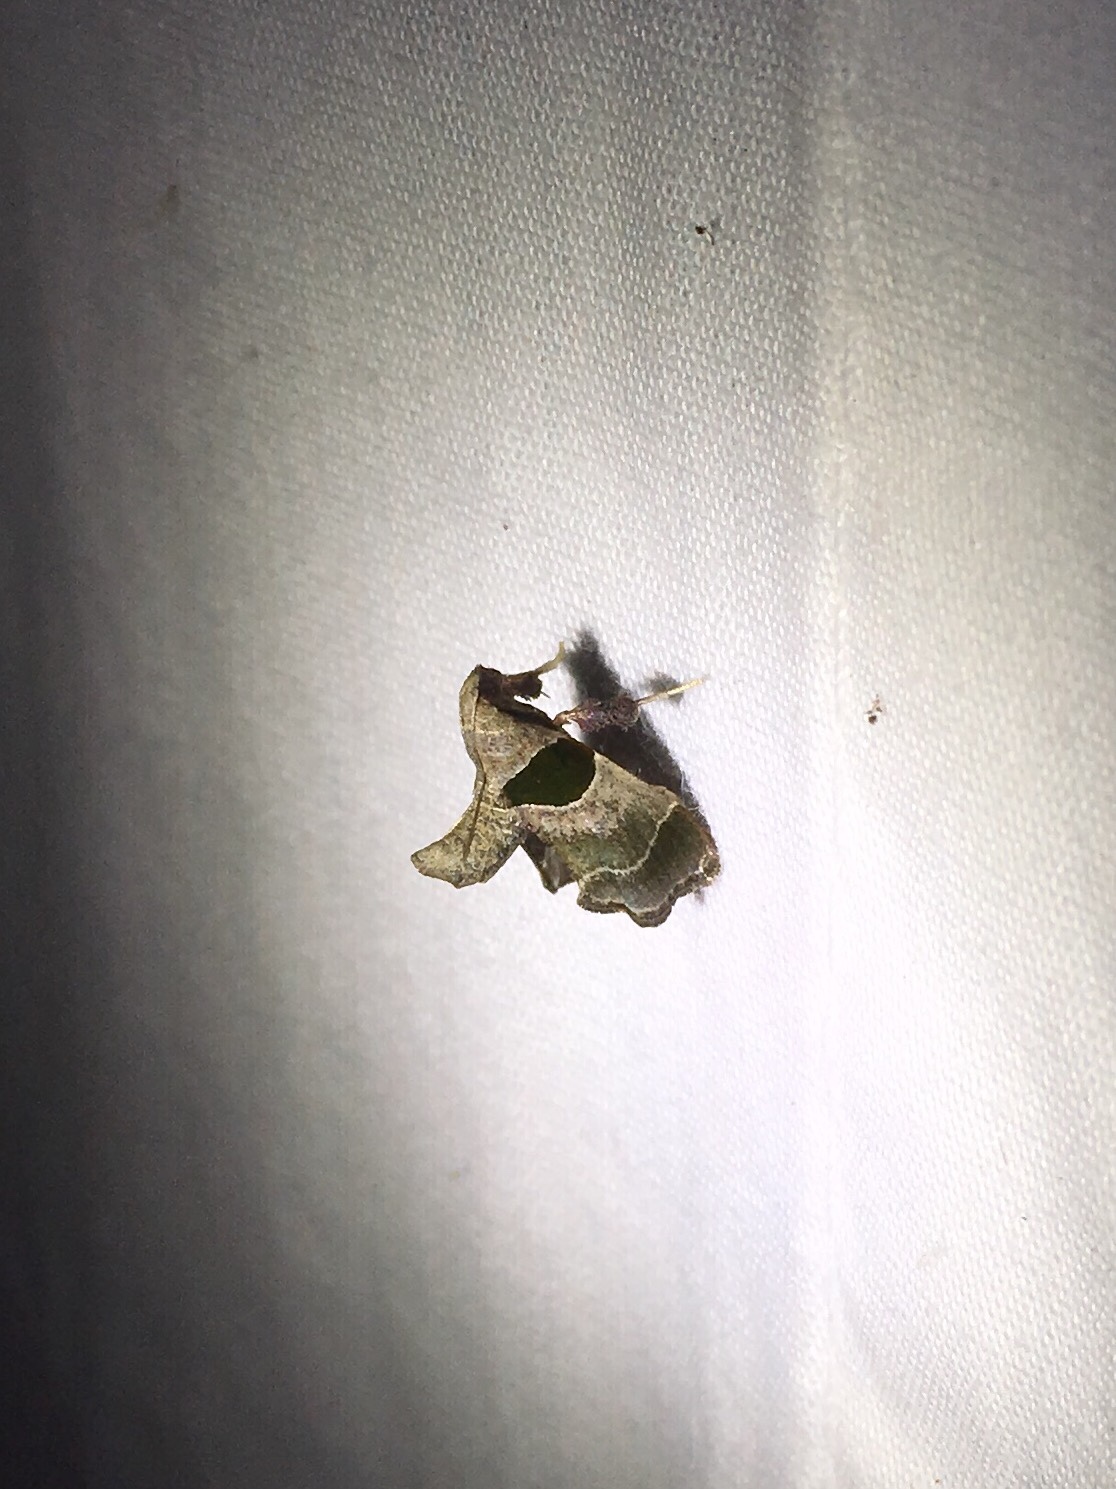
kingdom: Animalia
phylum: Arthropoda
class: Insecta
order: Lepidoptera
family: Pyralidae
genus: Tosale
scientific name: Tosale oviplagalis
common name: Dimorphic tosale moth
